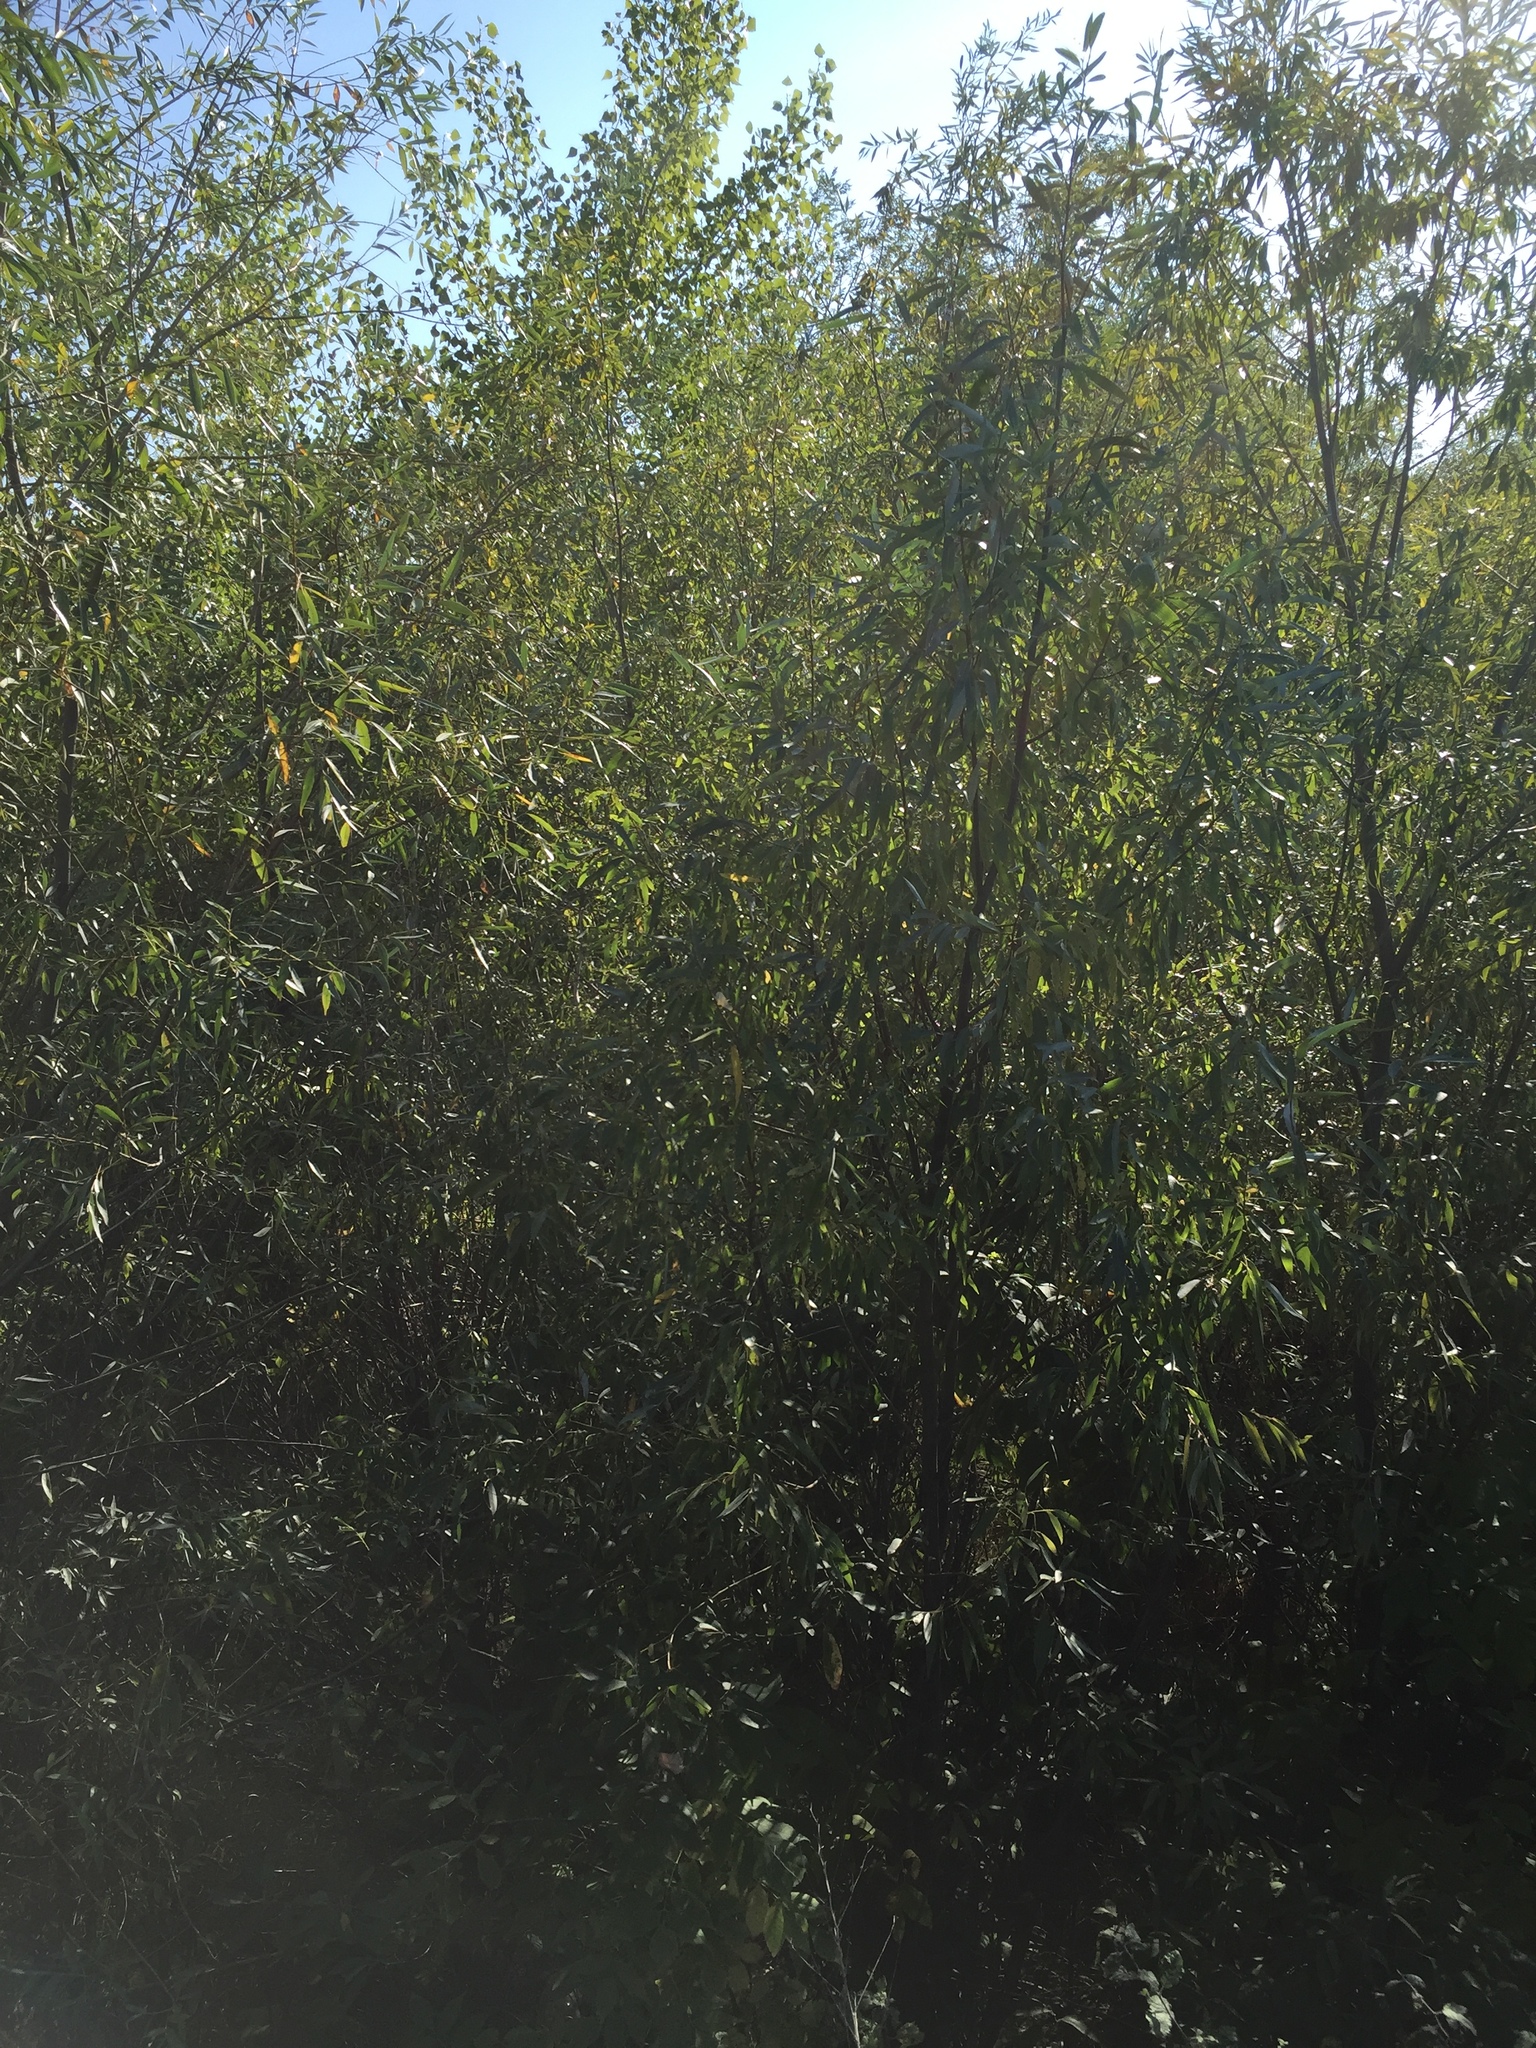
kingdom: Plantae
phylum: Tracheophyta
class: Magnoliopsida
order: Malpighiales
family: Salicaceae
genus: Salix
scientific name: Salix cinerea
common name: Common sallow
